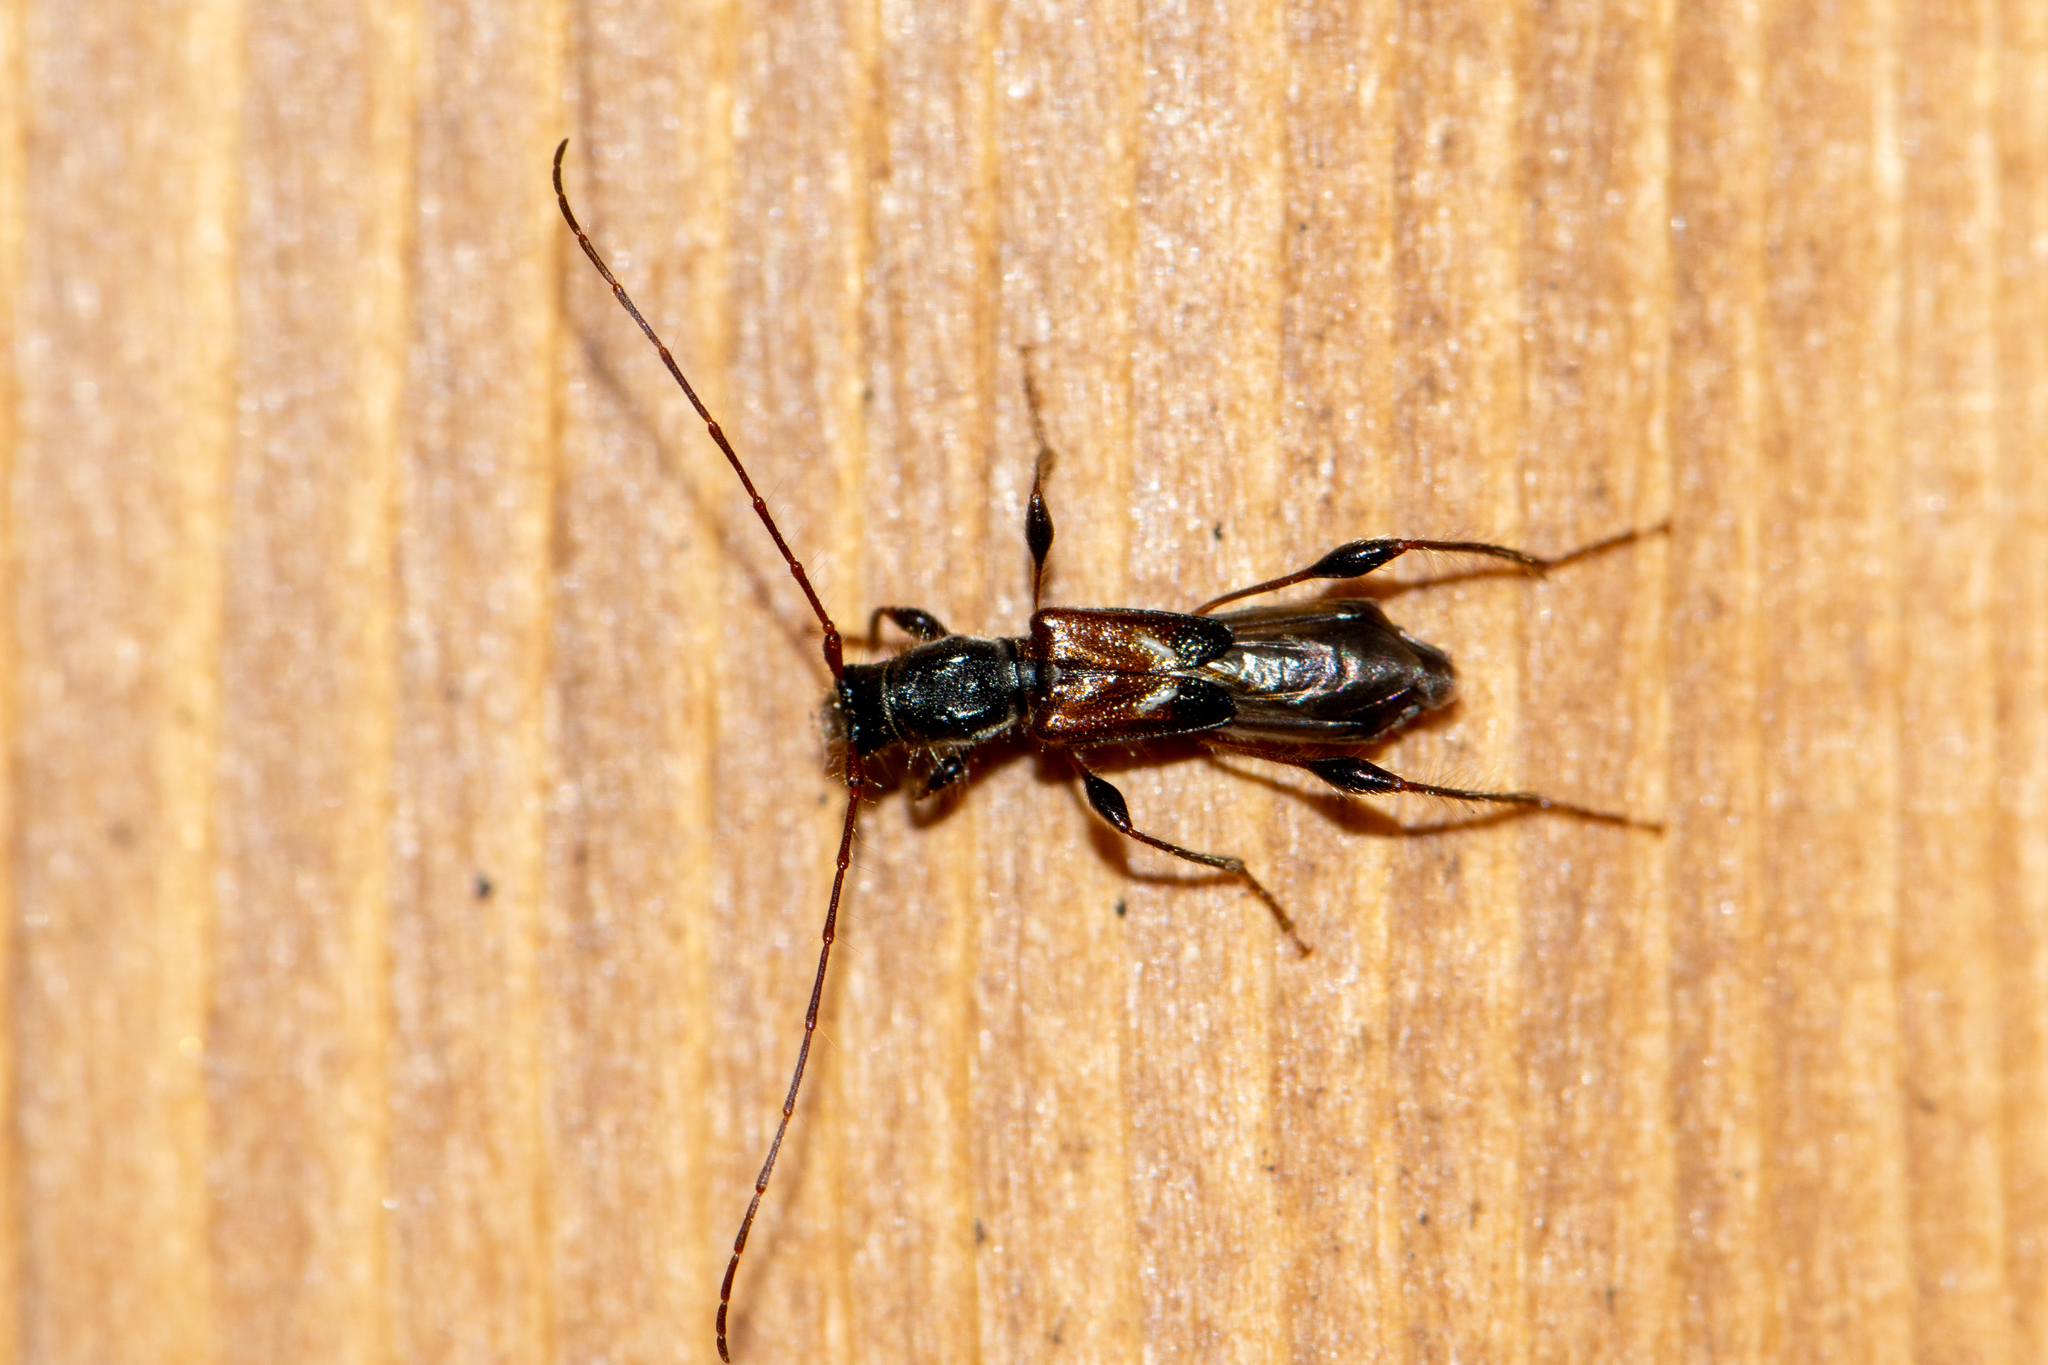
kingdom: Animalia
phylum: Arthropoda
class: Insecta
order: Coleoptera
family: Cerambycidae
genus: Molorchus
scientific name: Molorchus minor
